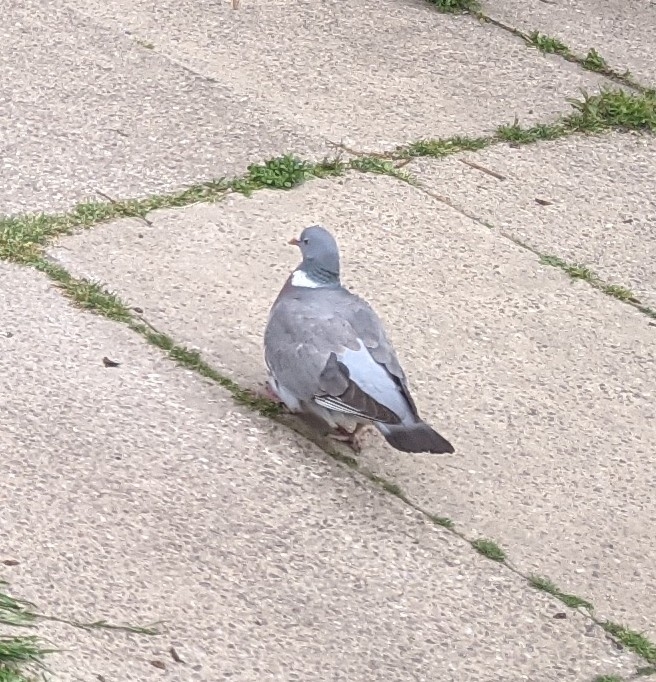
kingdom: Animalia
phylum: Chordata
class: Aves
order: Columbiformes
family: Columbidae
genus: Columba
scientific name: Columba palumbus
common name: Common wood pigeon
